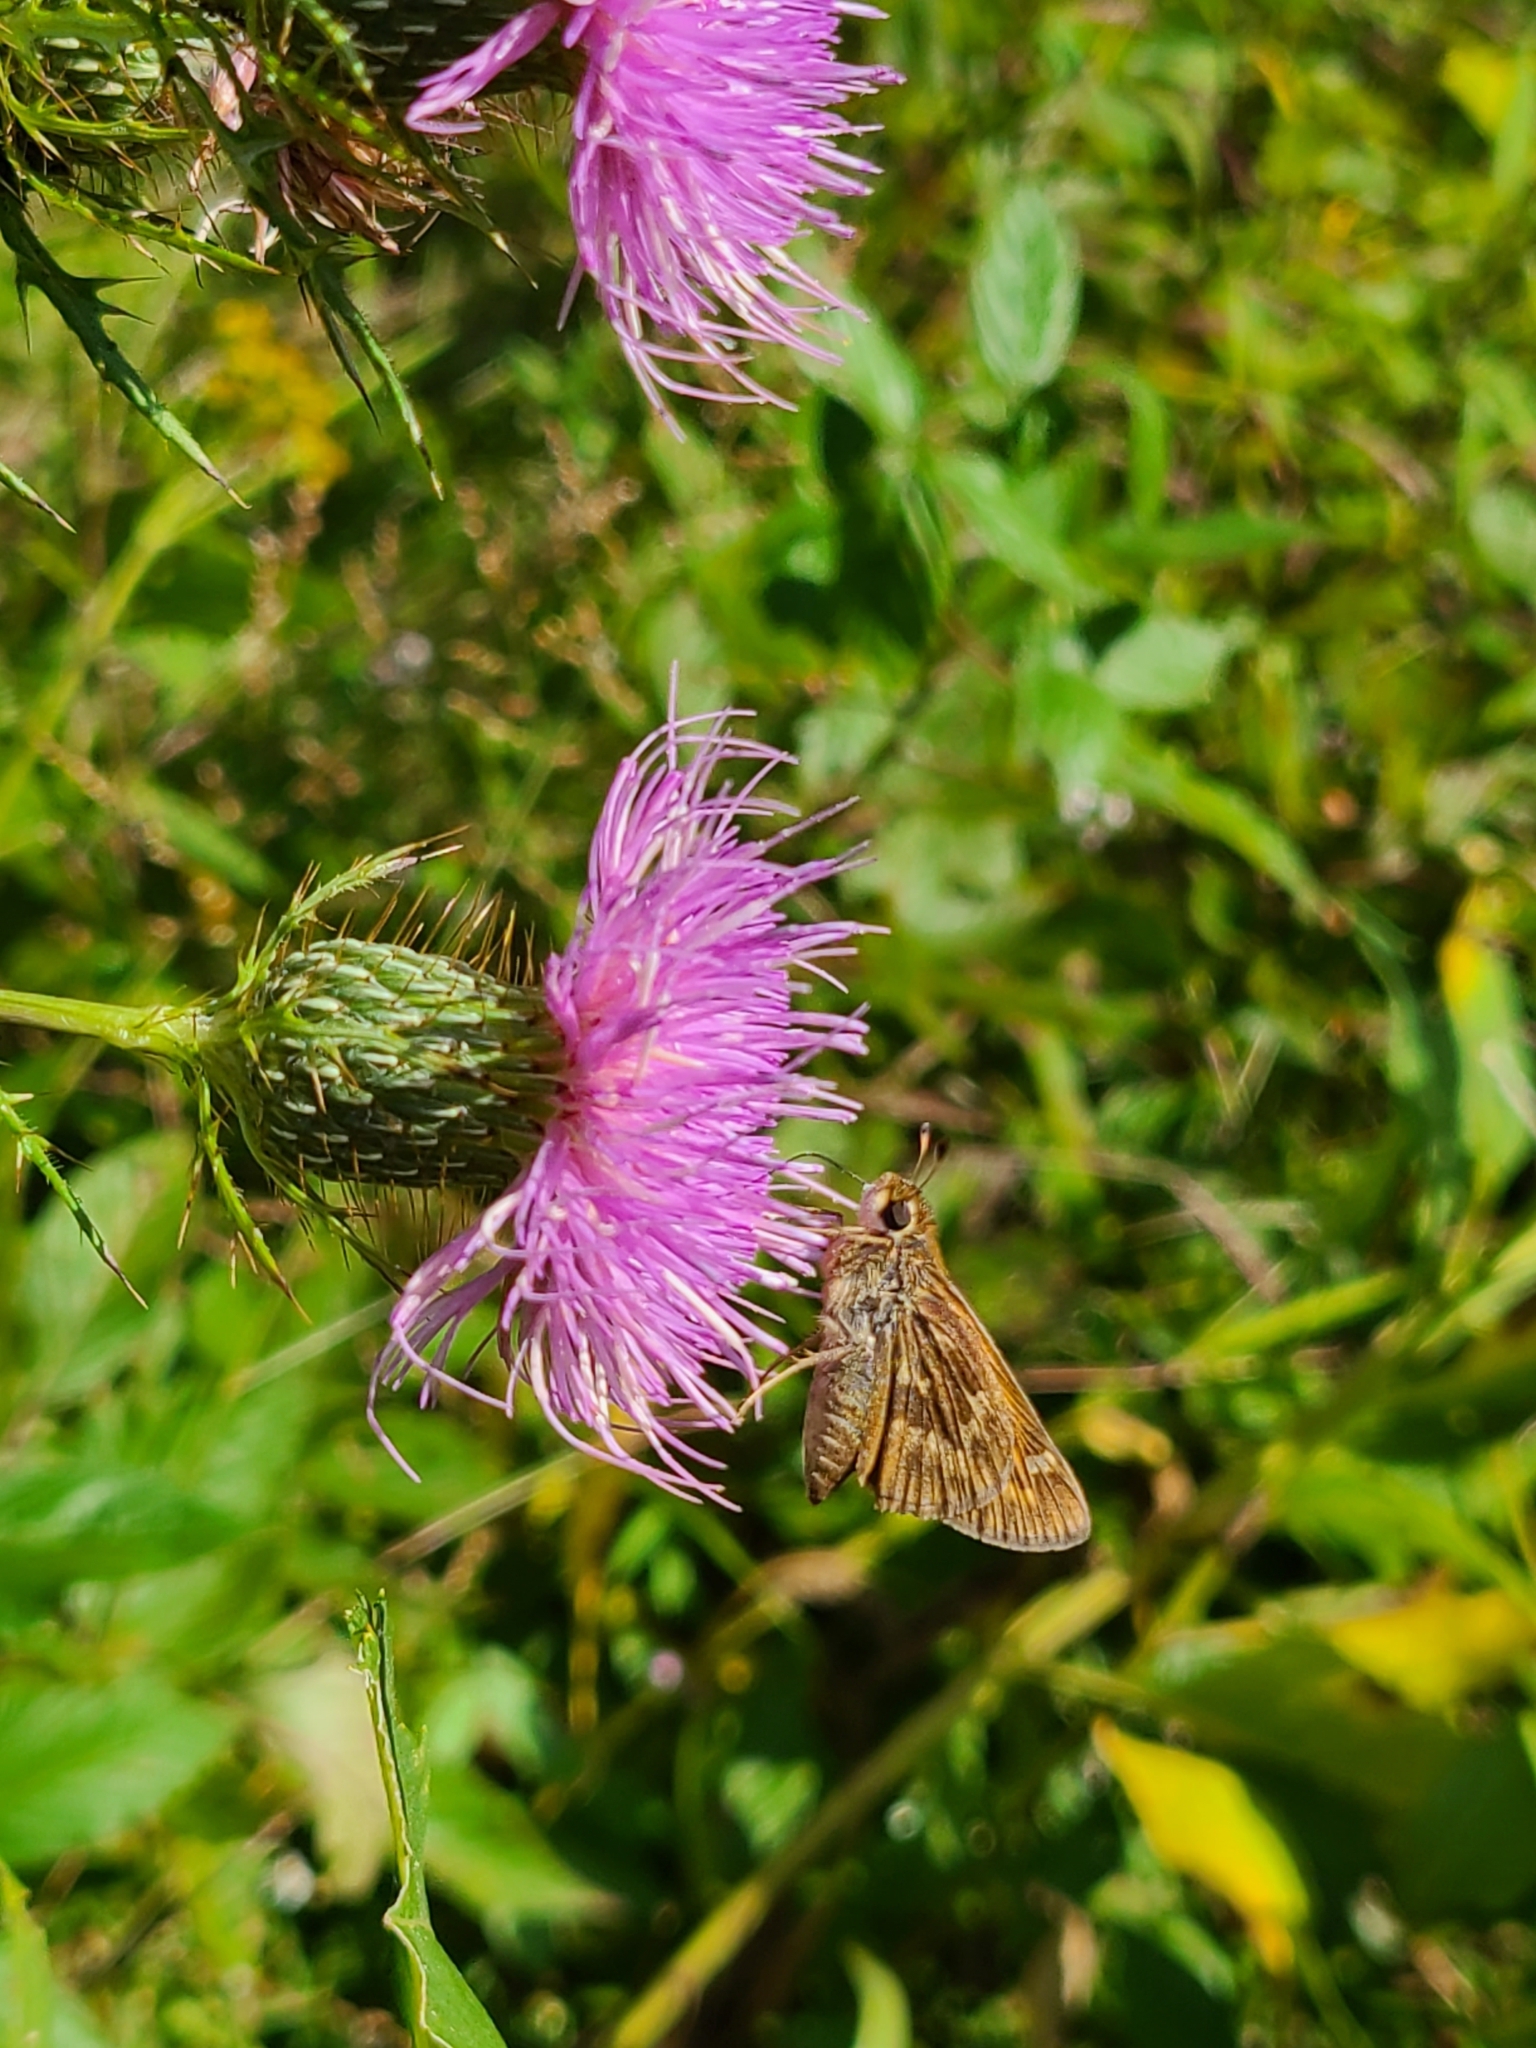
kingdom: Animalia
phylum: Arthropoda
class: Insecta
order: Lepidoptera
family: Hesperiidae
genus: Atalopedes
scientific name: Atalopedes
